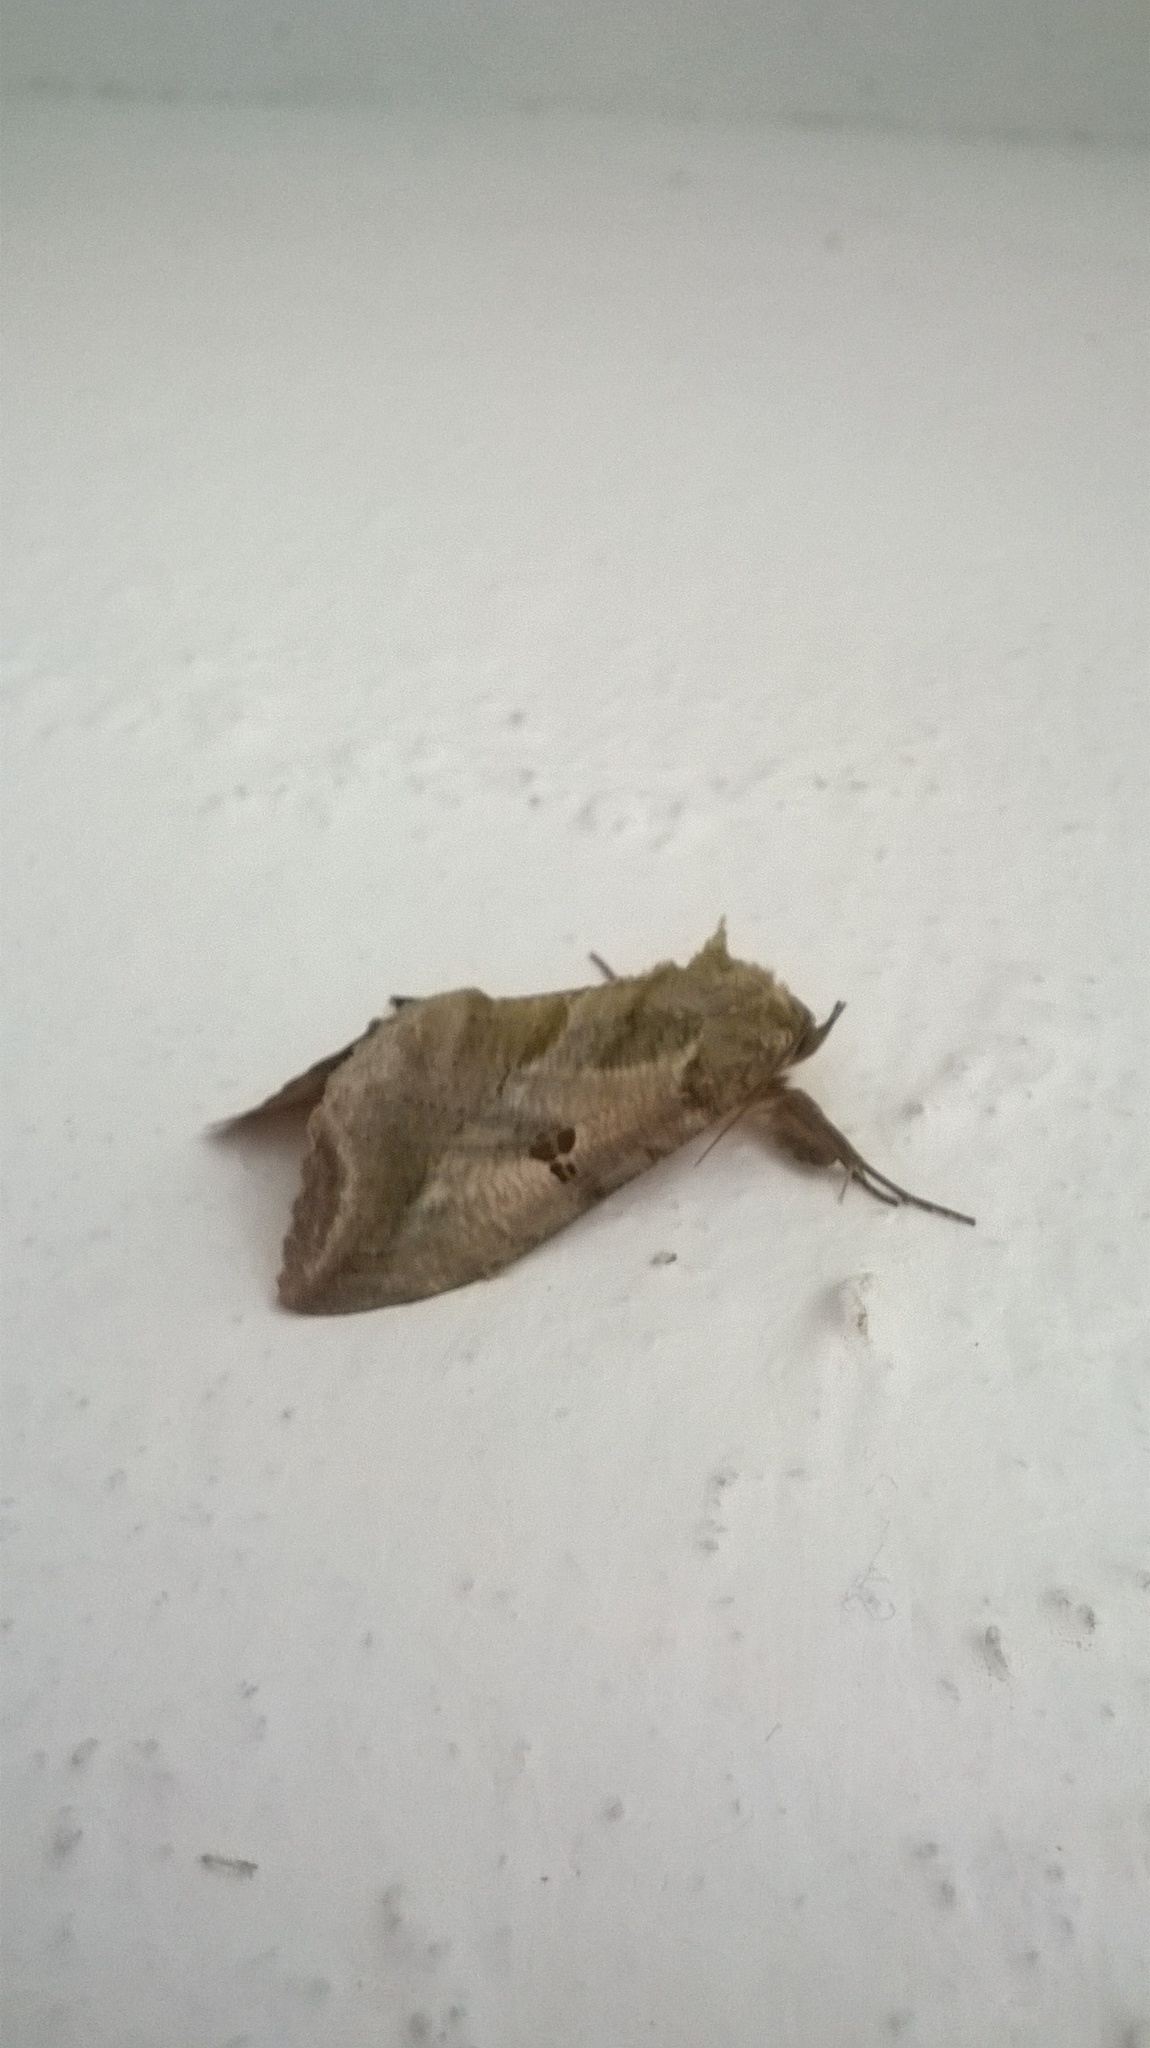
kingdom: Animalia
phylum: Arthropoda
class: Insecta
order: Lepidoptera
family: Erebidae
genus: Eudocima
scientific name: Eudocima materna
